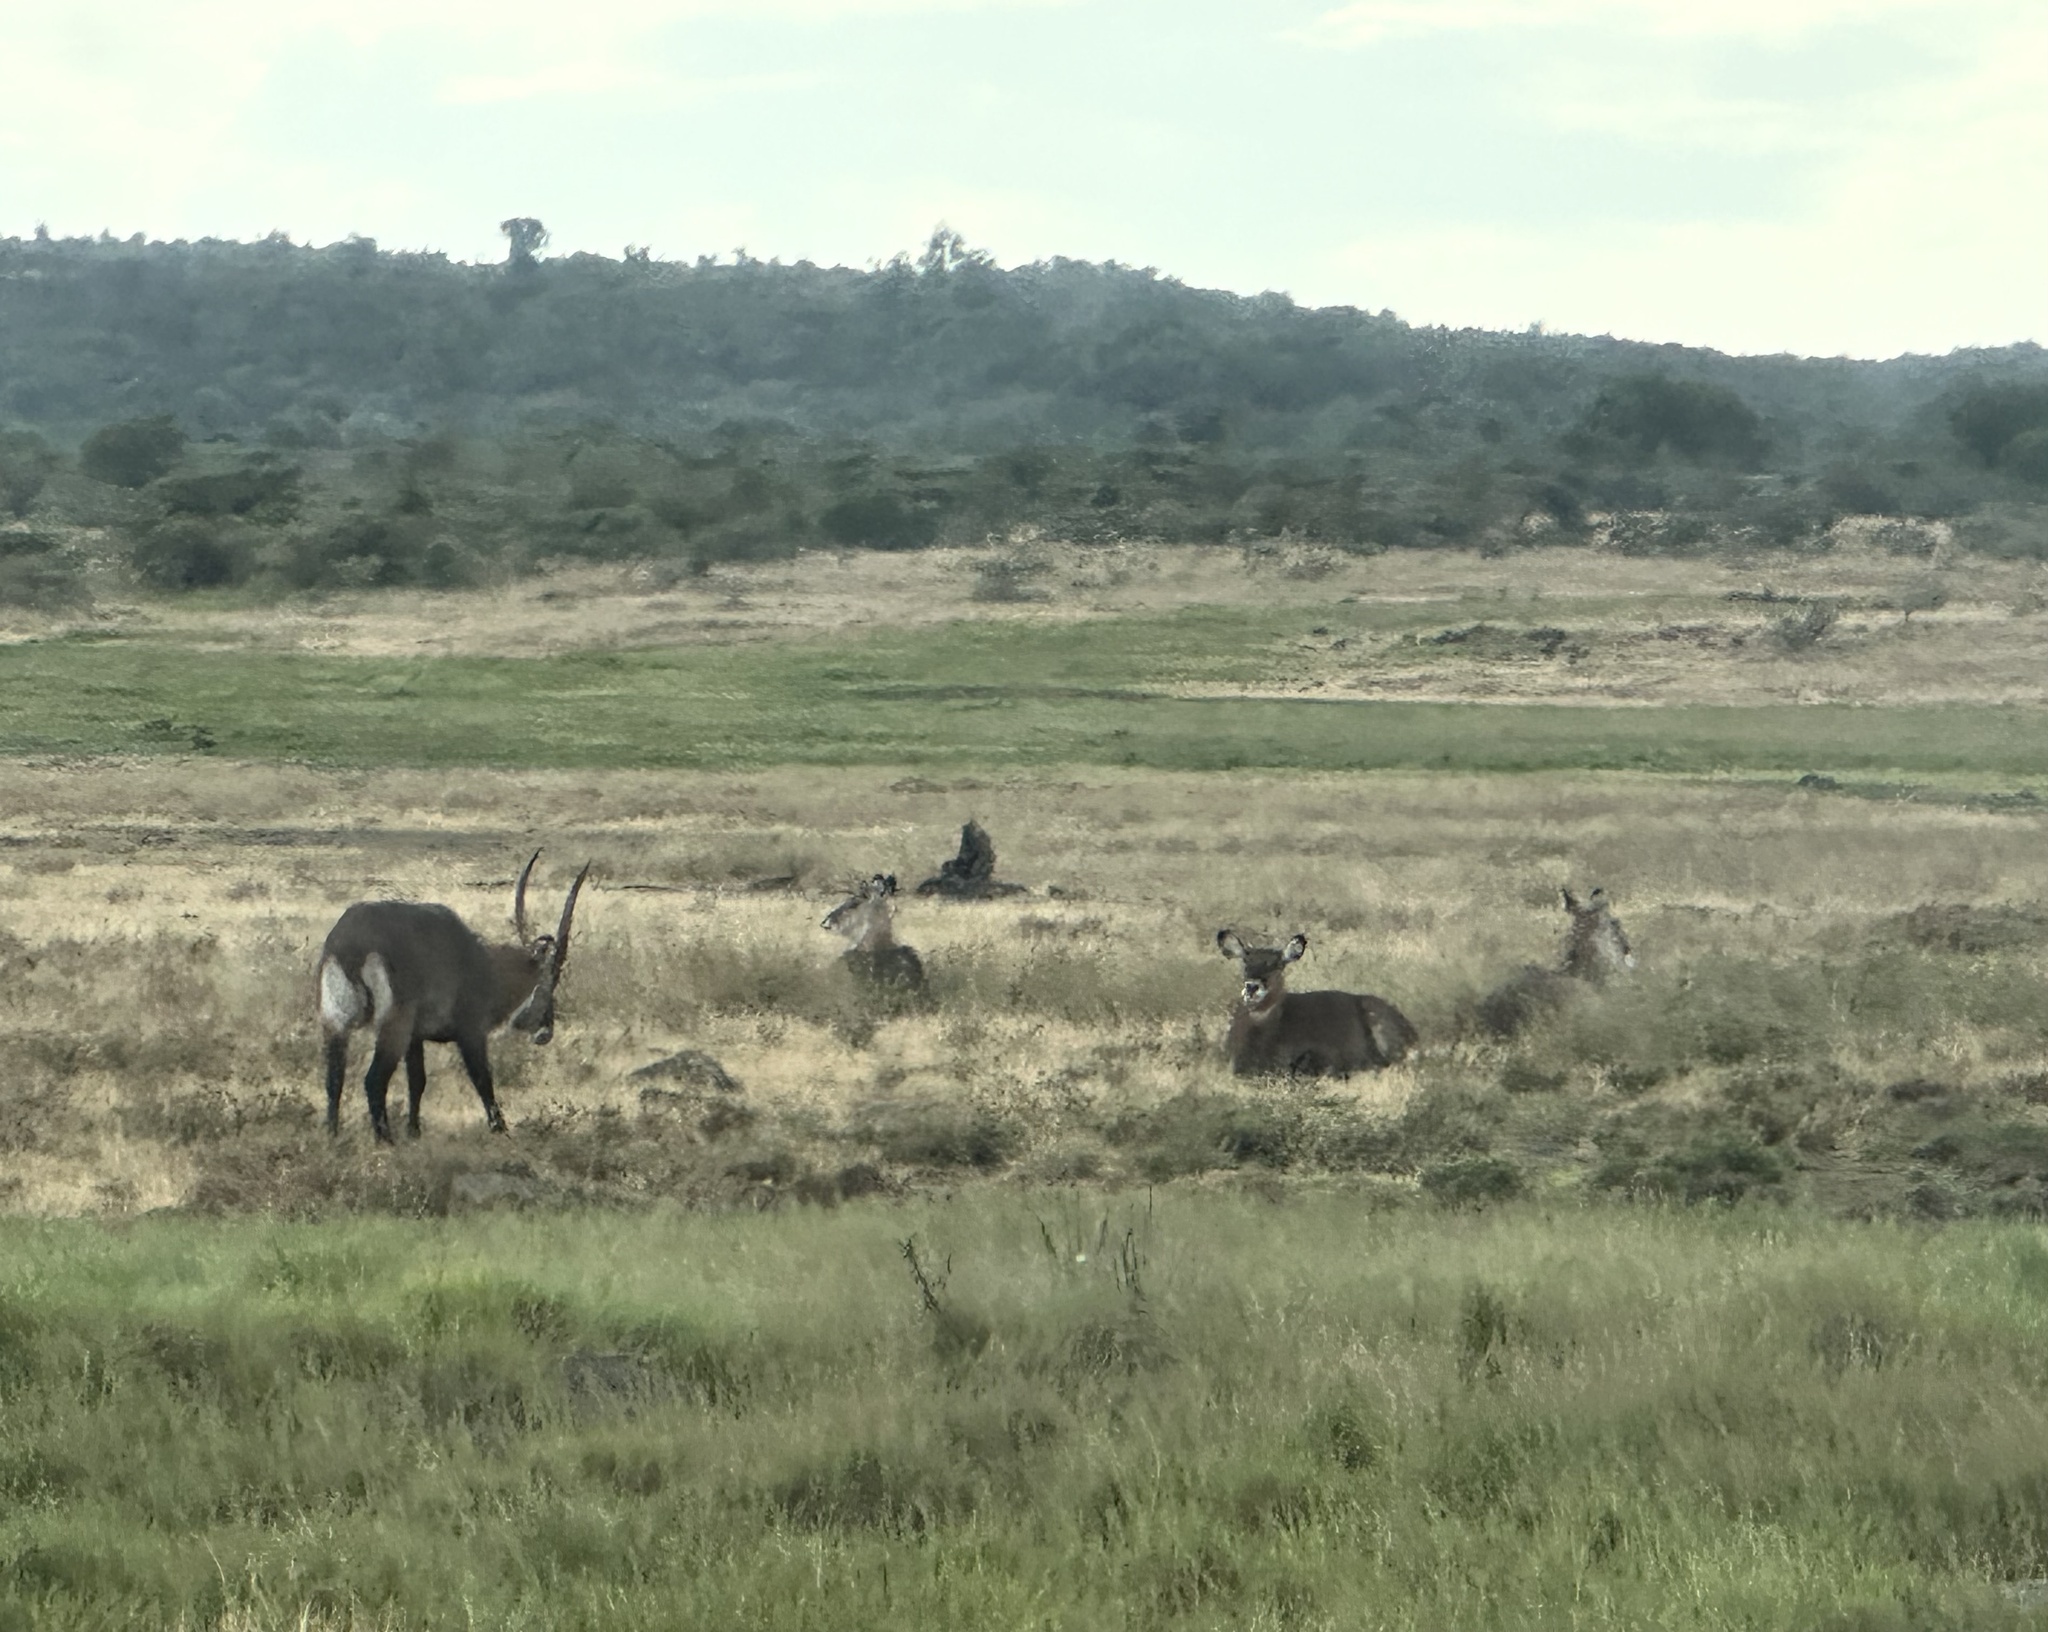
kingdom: Animalia
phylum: Chordata
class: Mammalia
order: Artiodactyla
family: Bovidae
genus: Kobus
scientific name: Kobus ellipsiprymnus
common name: Waterbuck
